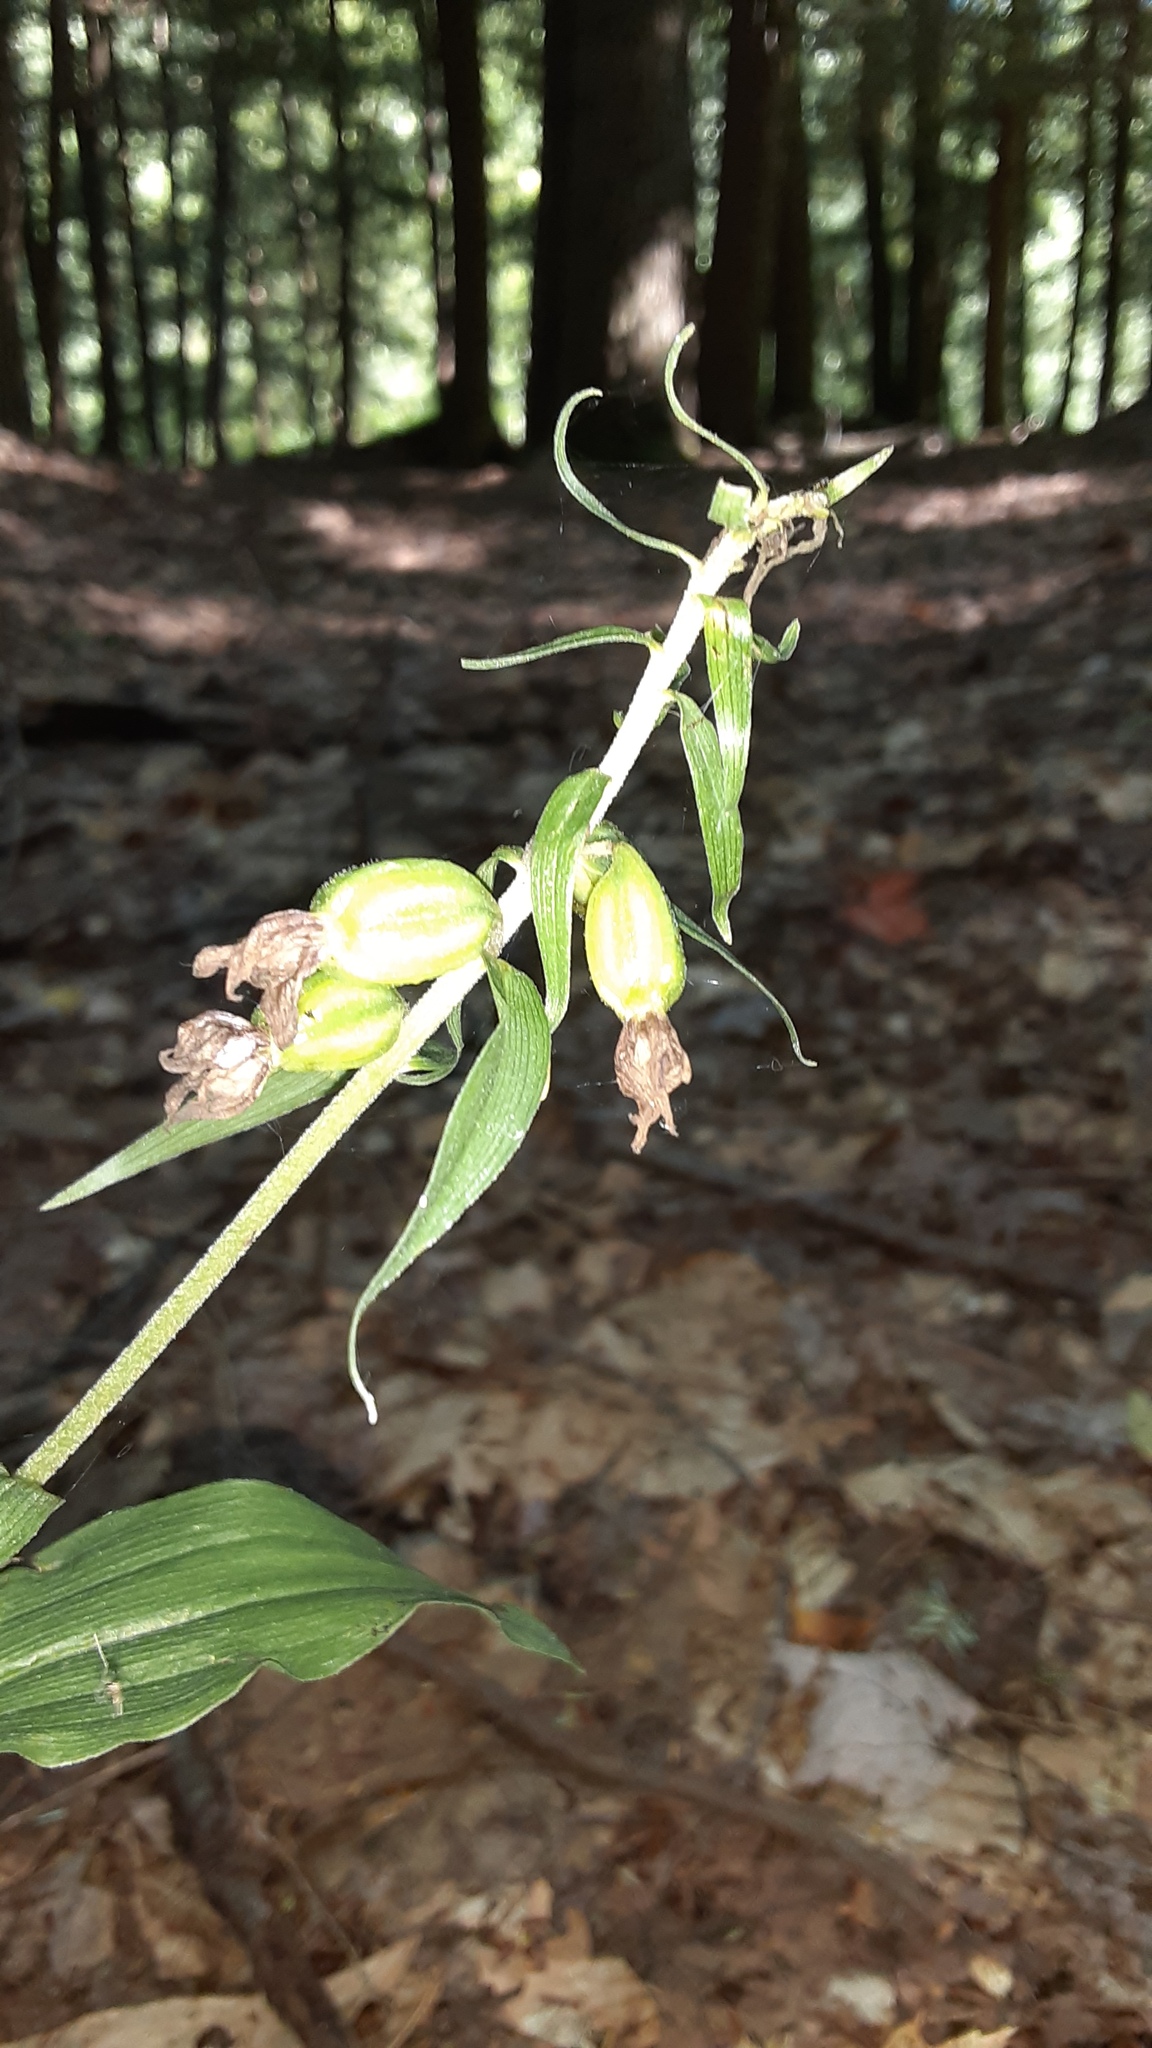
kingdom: Plantae
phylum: Tracheophyta
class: Liliopsida
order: Asparagales
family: Orchidaceae
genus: Epipactis
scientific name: Epipactis helleborine
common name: Broad-leaved helleborine
